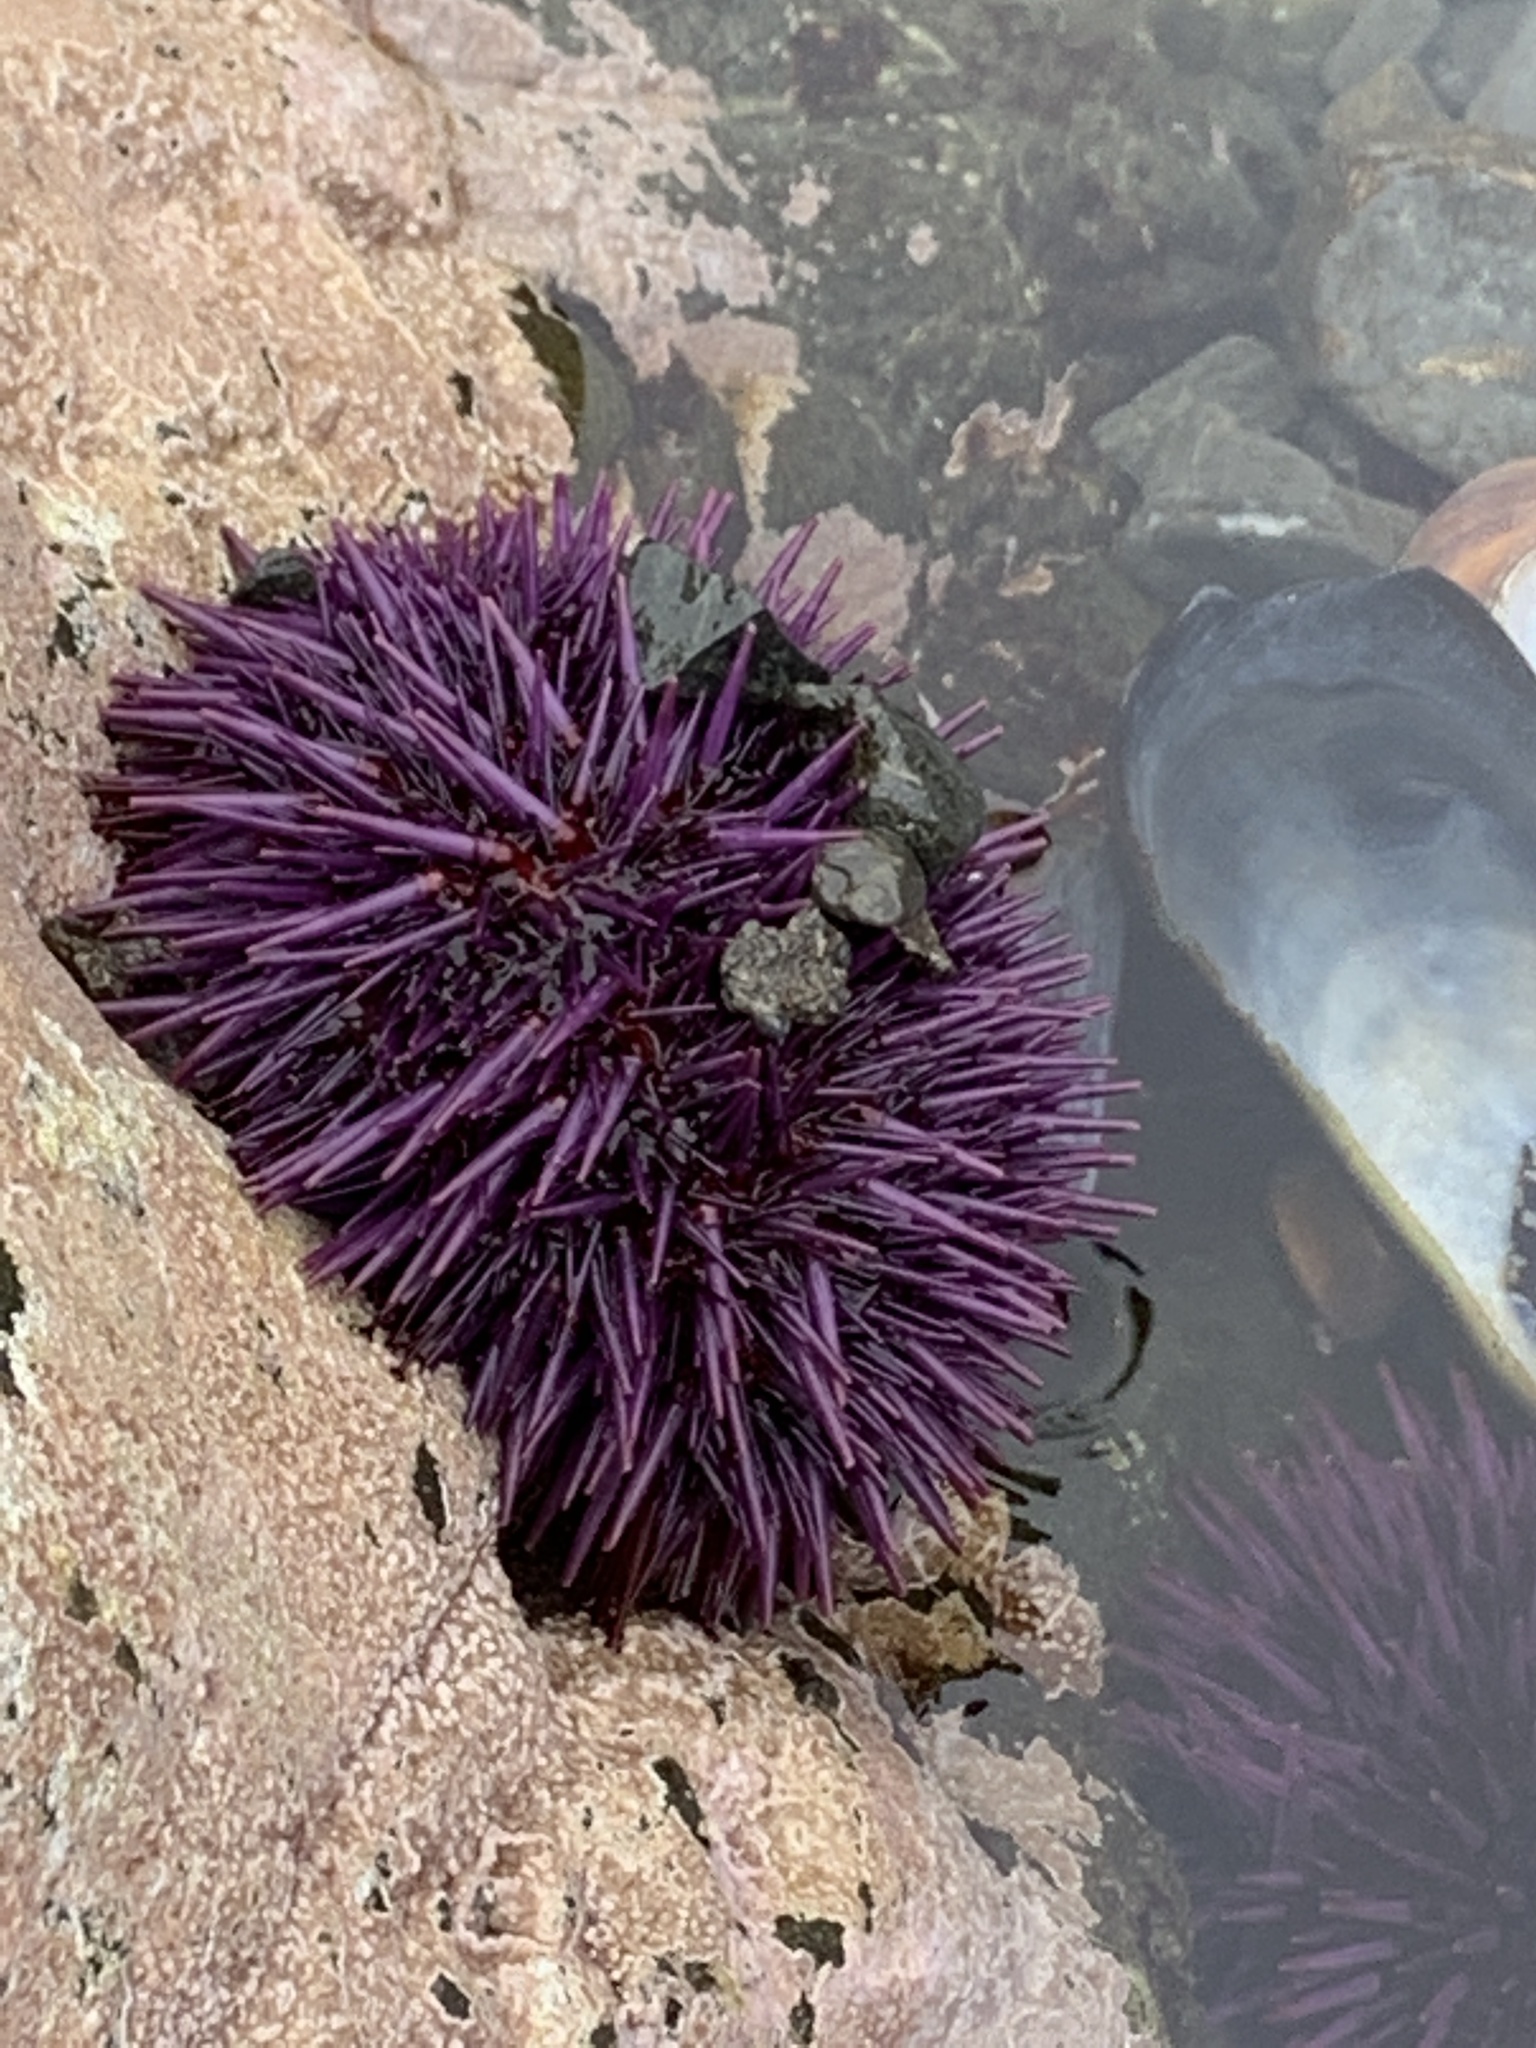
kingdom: Animalia
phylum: Echinodermata
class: Echinoidea
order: Camarodonta
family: Strongylocentrotidae
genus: Strongylocentrotus
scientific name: Strongylocentrotus purpuratus
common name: Purple sea urchin
